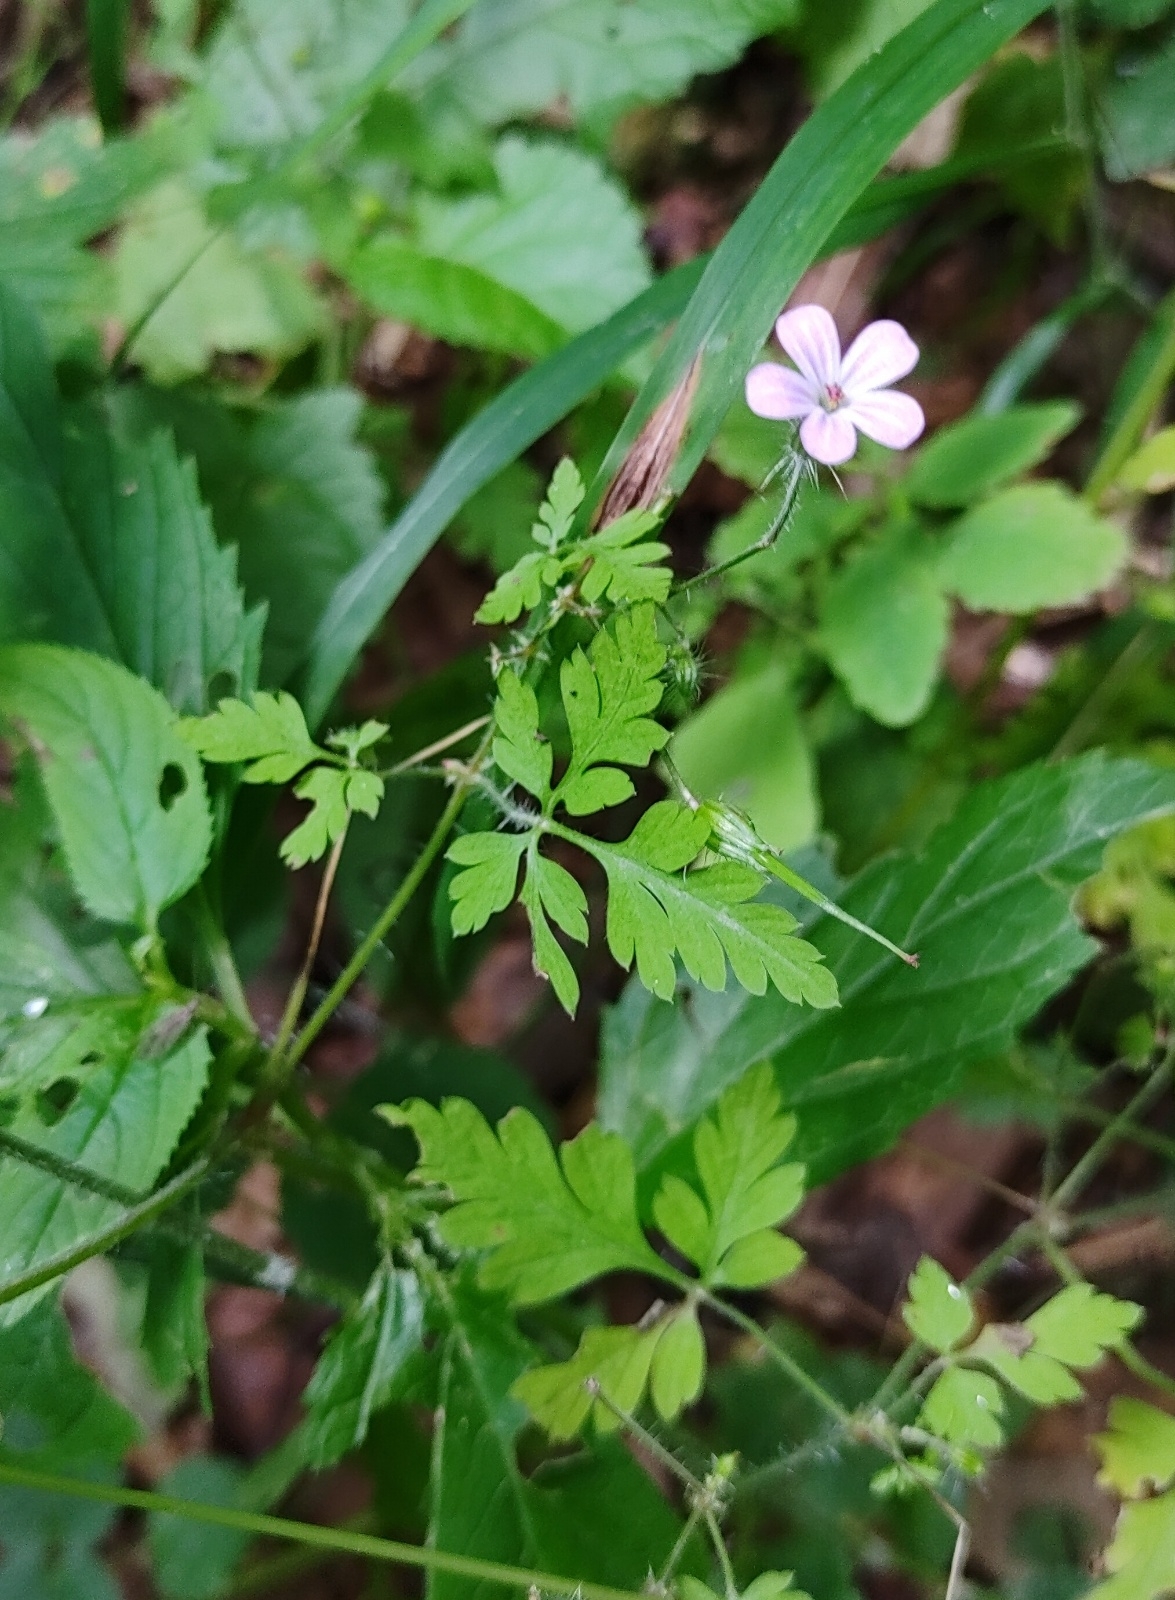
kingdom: Plantae
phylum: Tracheophyta
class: Magnoliopsida
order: Geraniales
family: Geraniaceae
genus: Geranium
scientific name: Geranium robertianum
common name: Herb-robert
